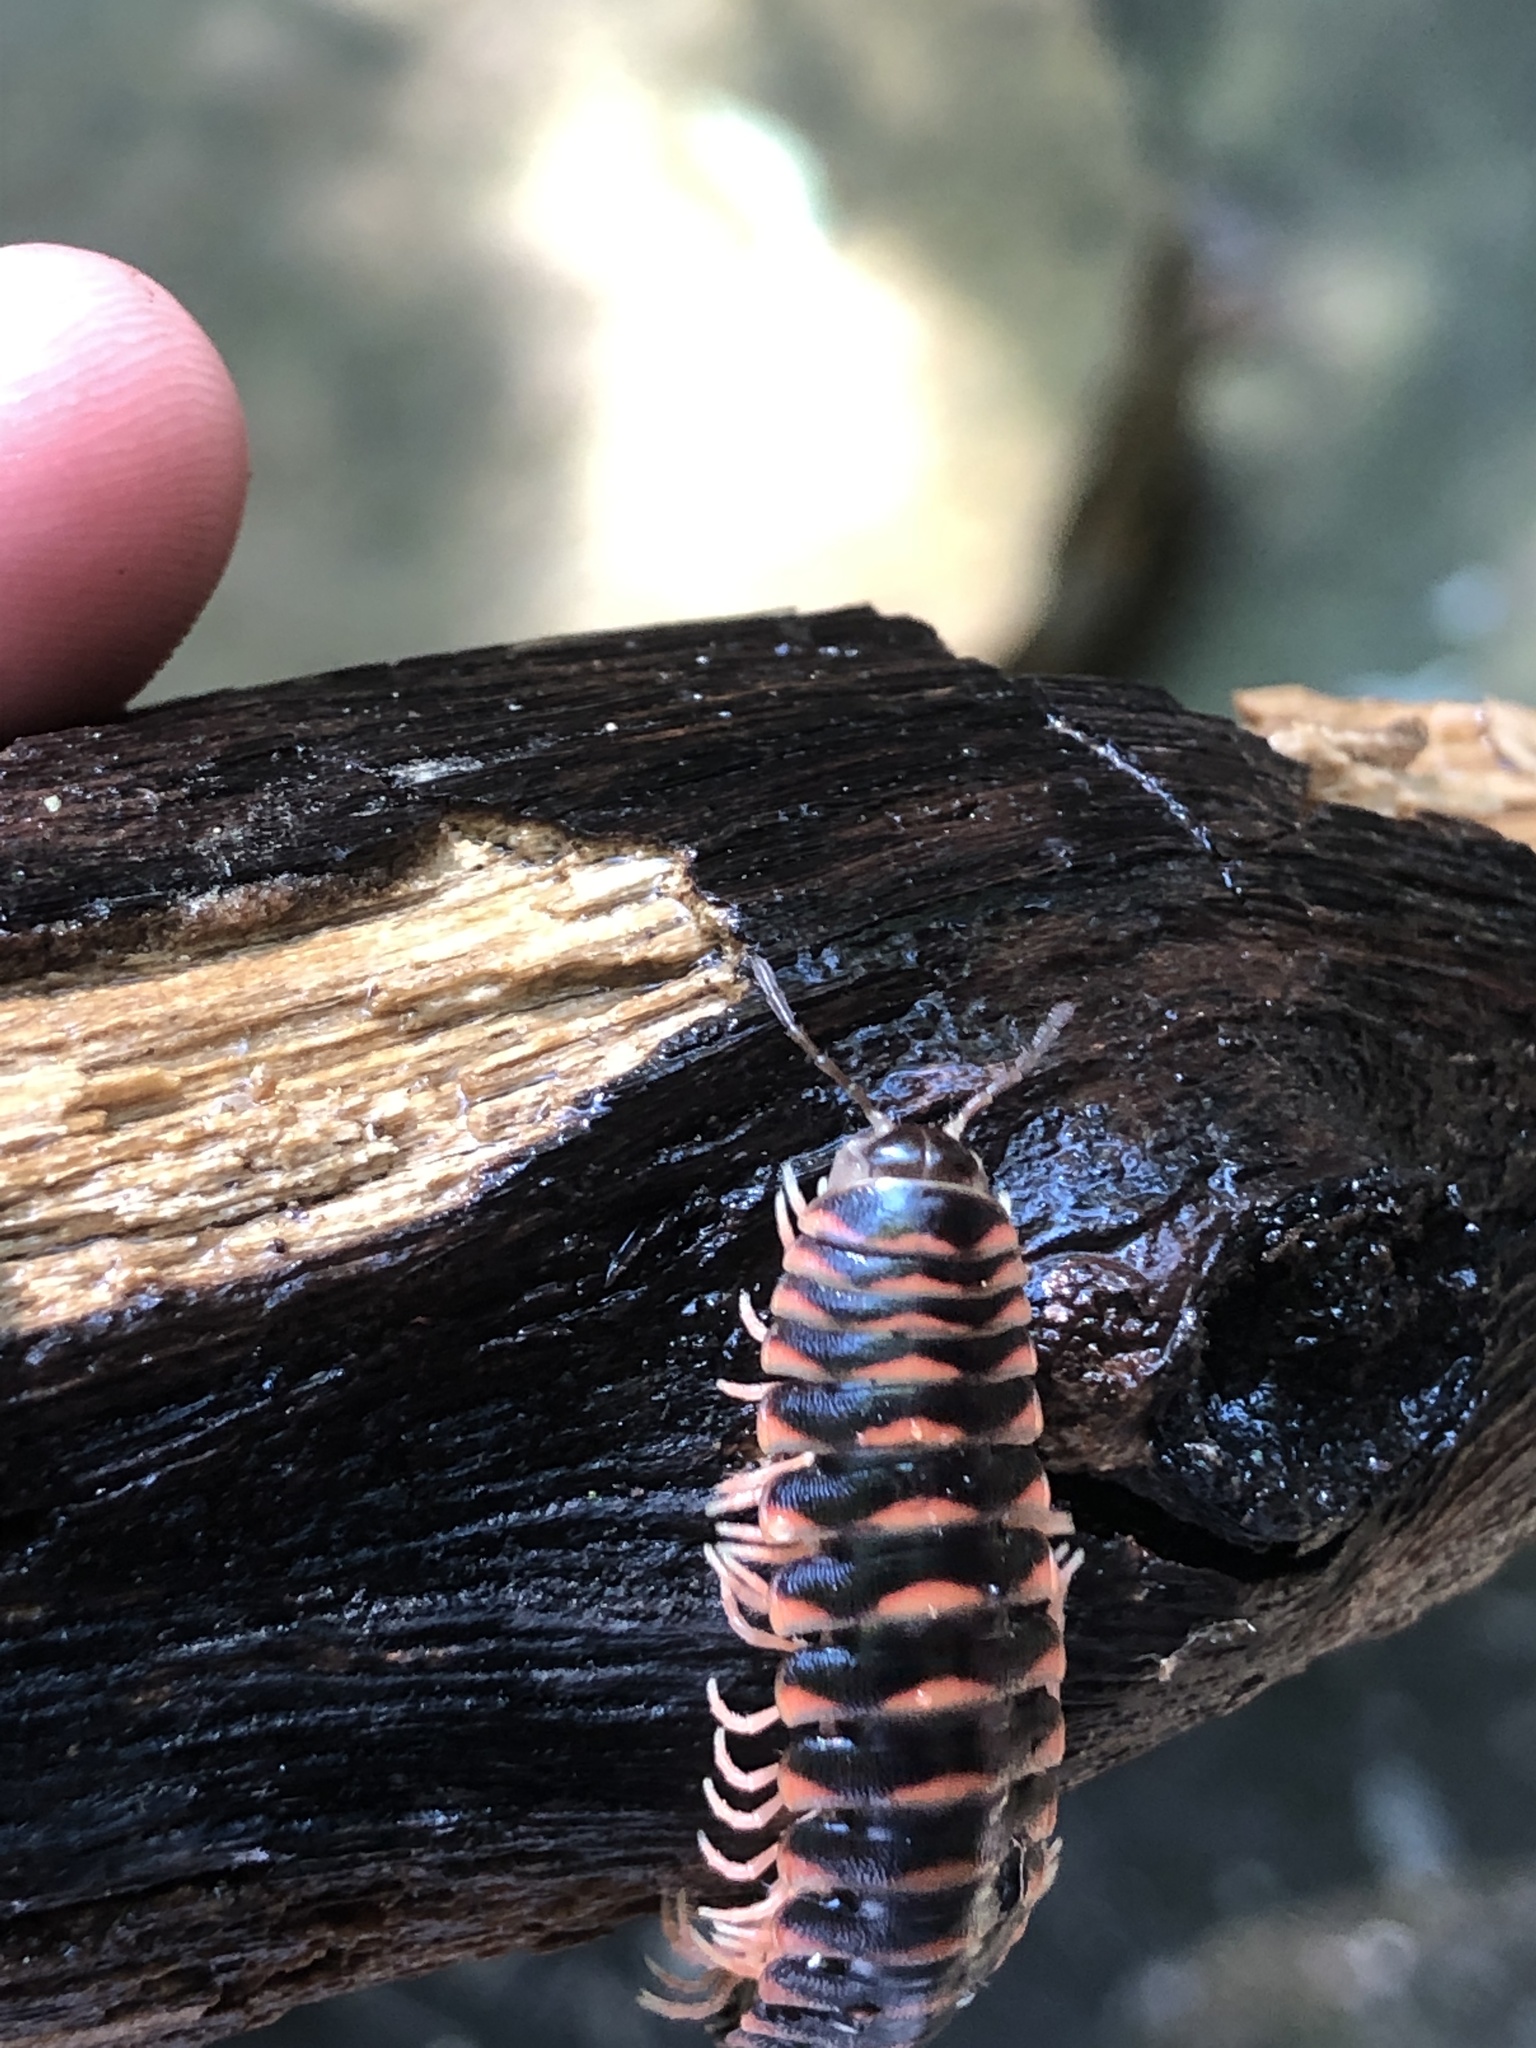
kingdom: Animalia
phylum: Arthropoda
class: Diplopoda
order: Polydesmida
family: Xystodesmidae
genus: Cherokia
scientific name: Cherokia georgiana
